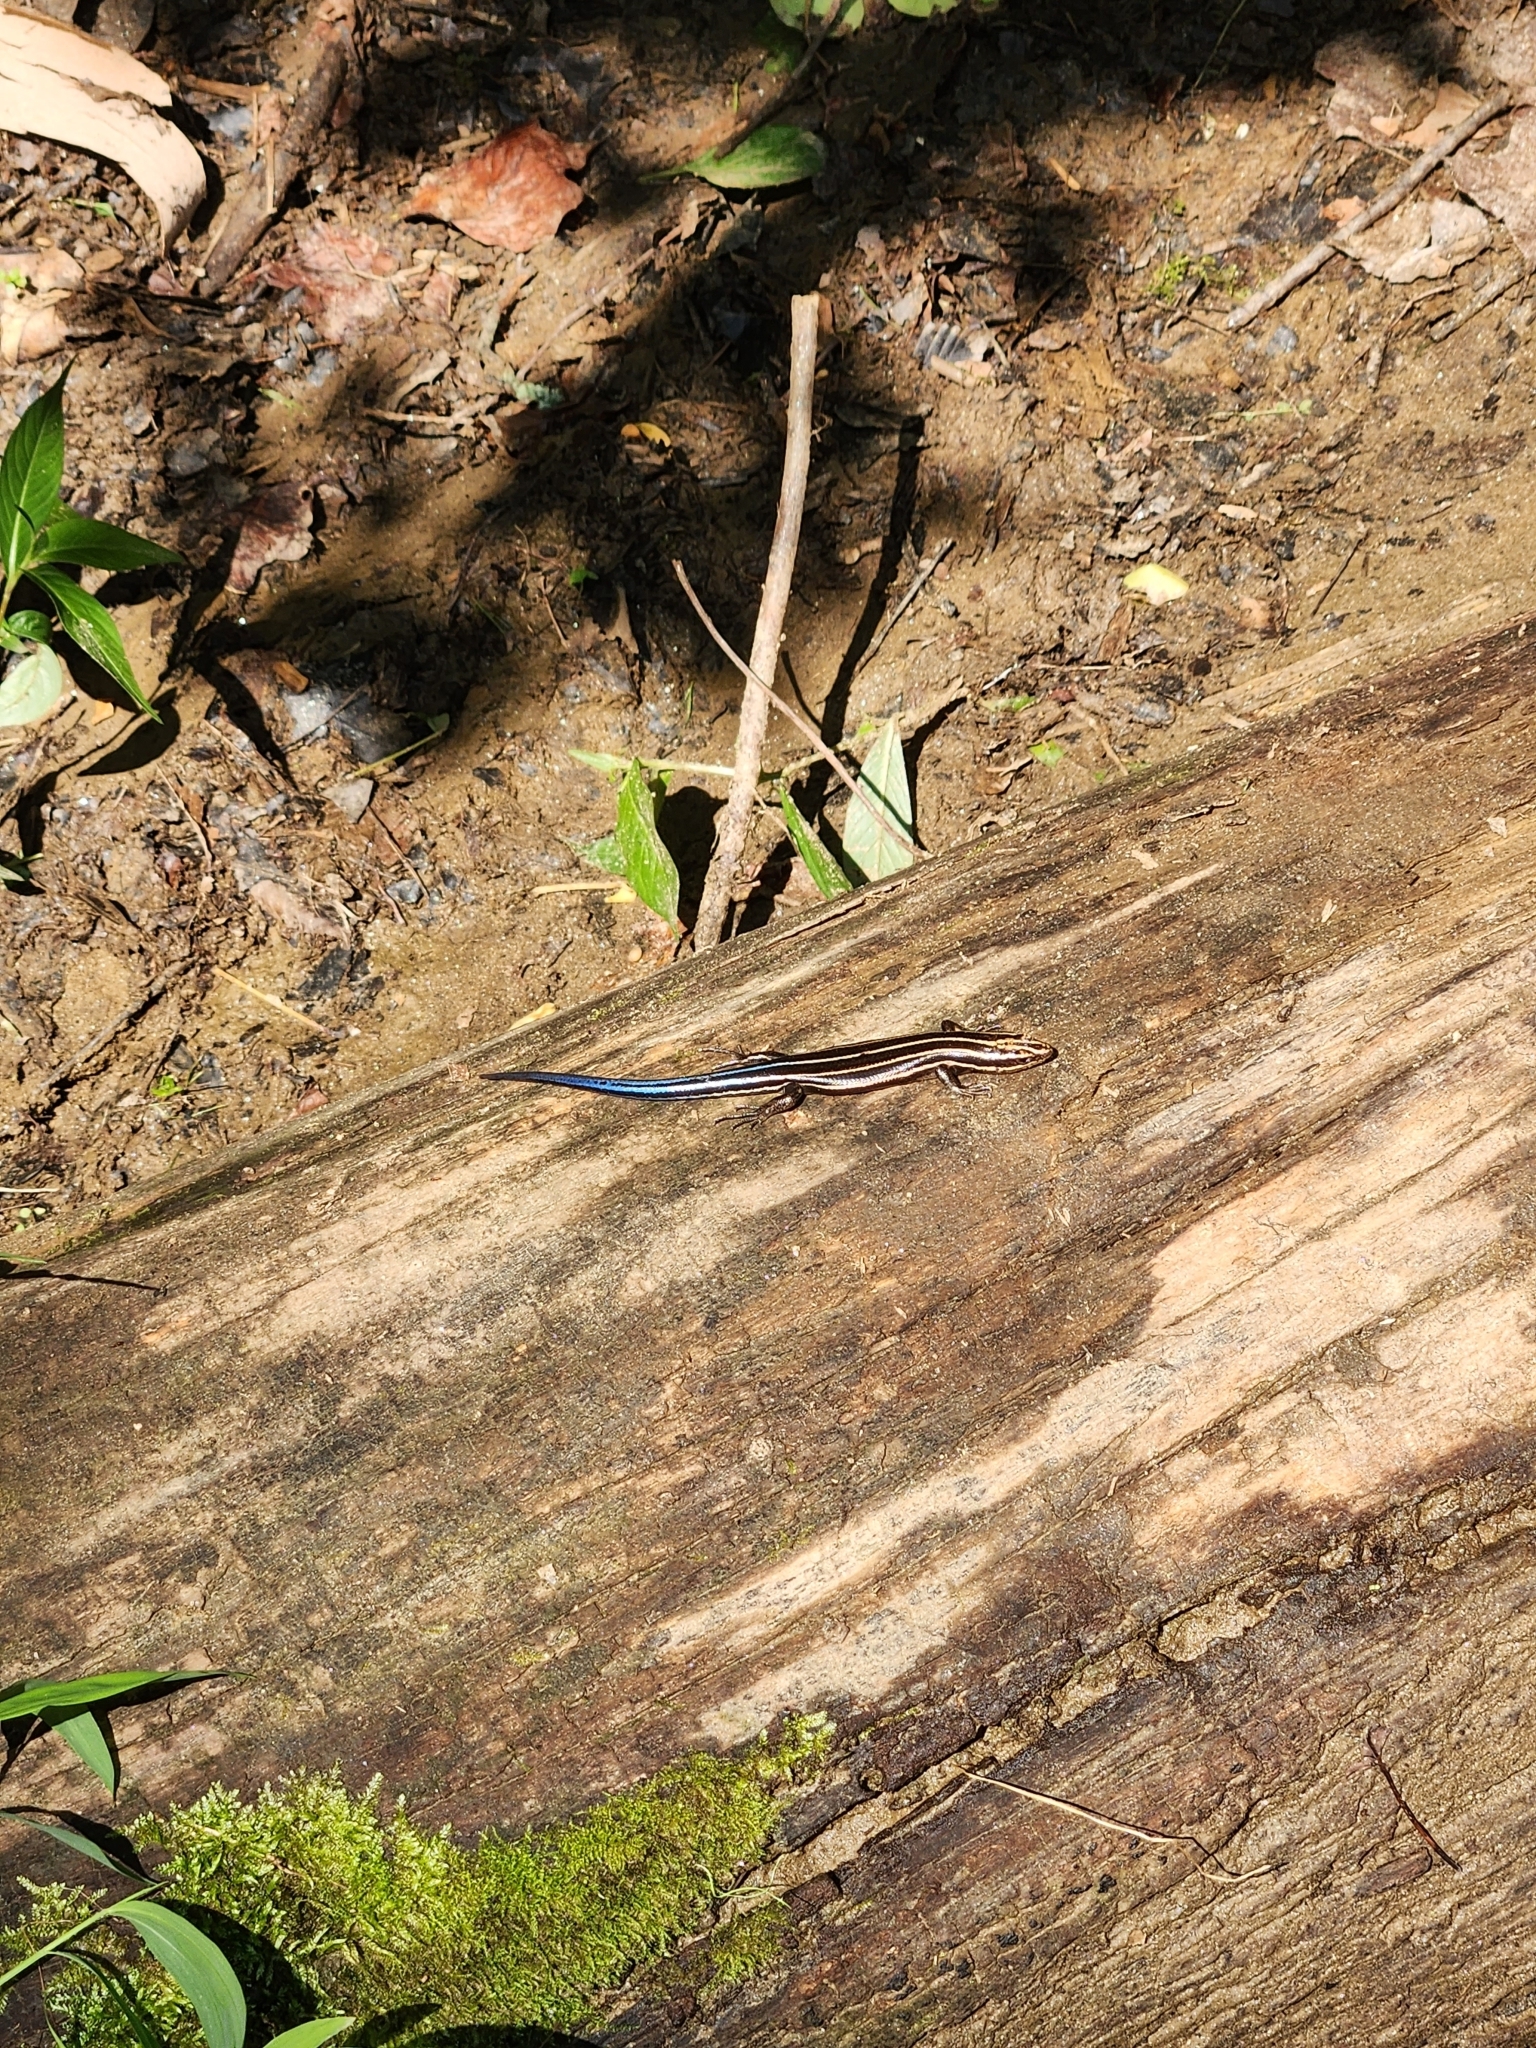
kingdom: Animalia
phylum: Chordata
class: Squamata
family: Scincidae
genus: Plestiodon
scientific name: Plestiodon fasciatus
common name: Five-lined skink
